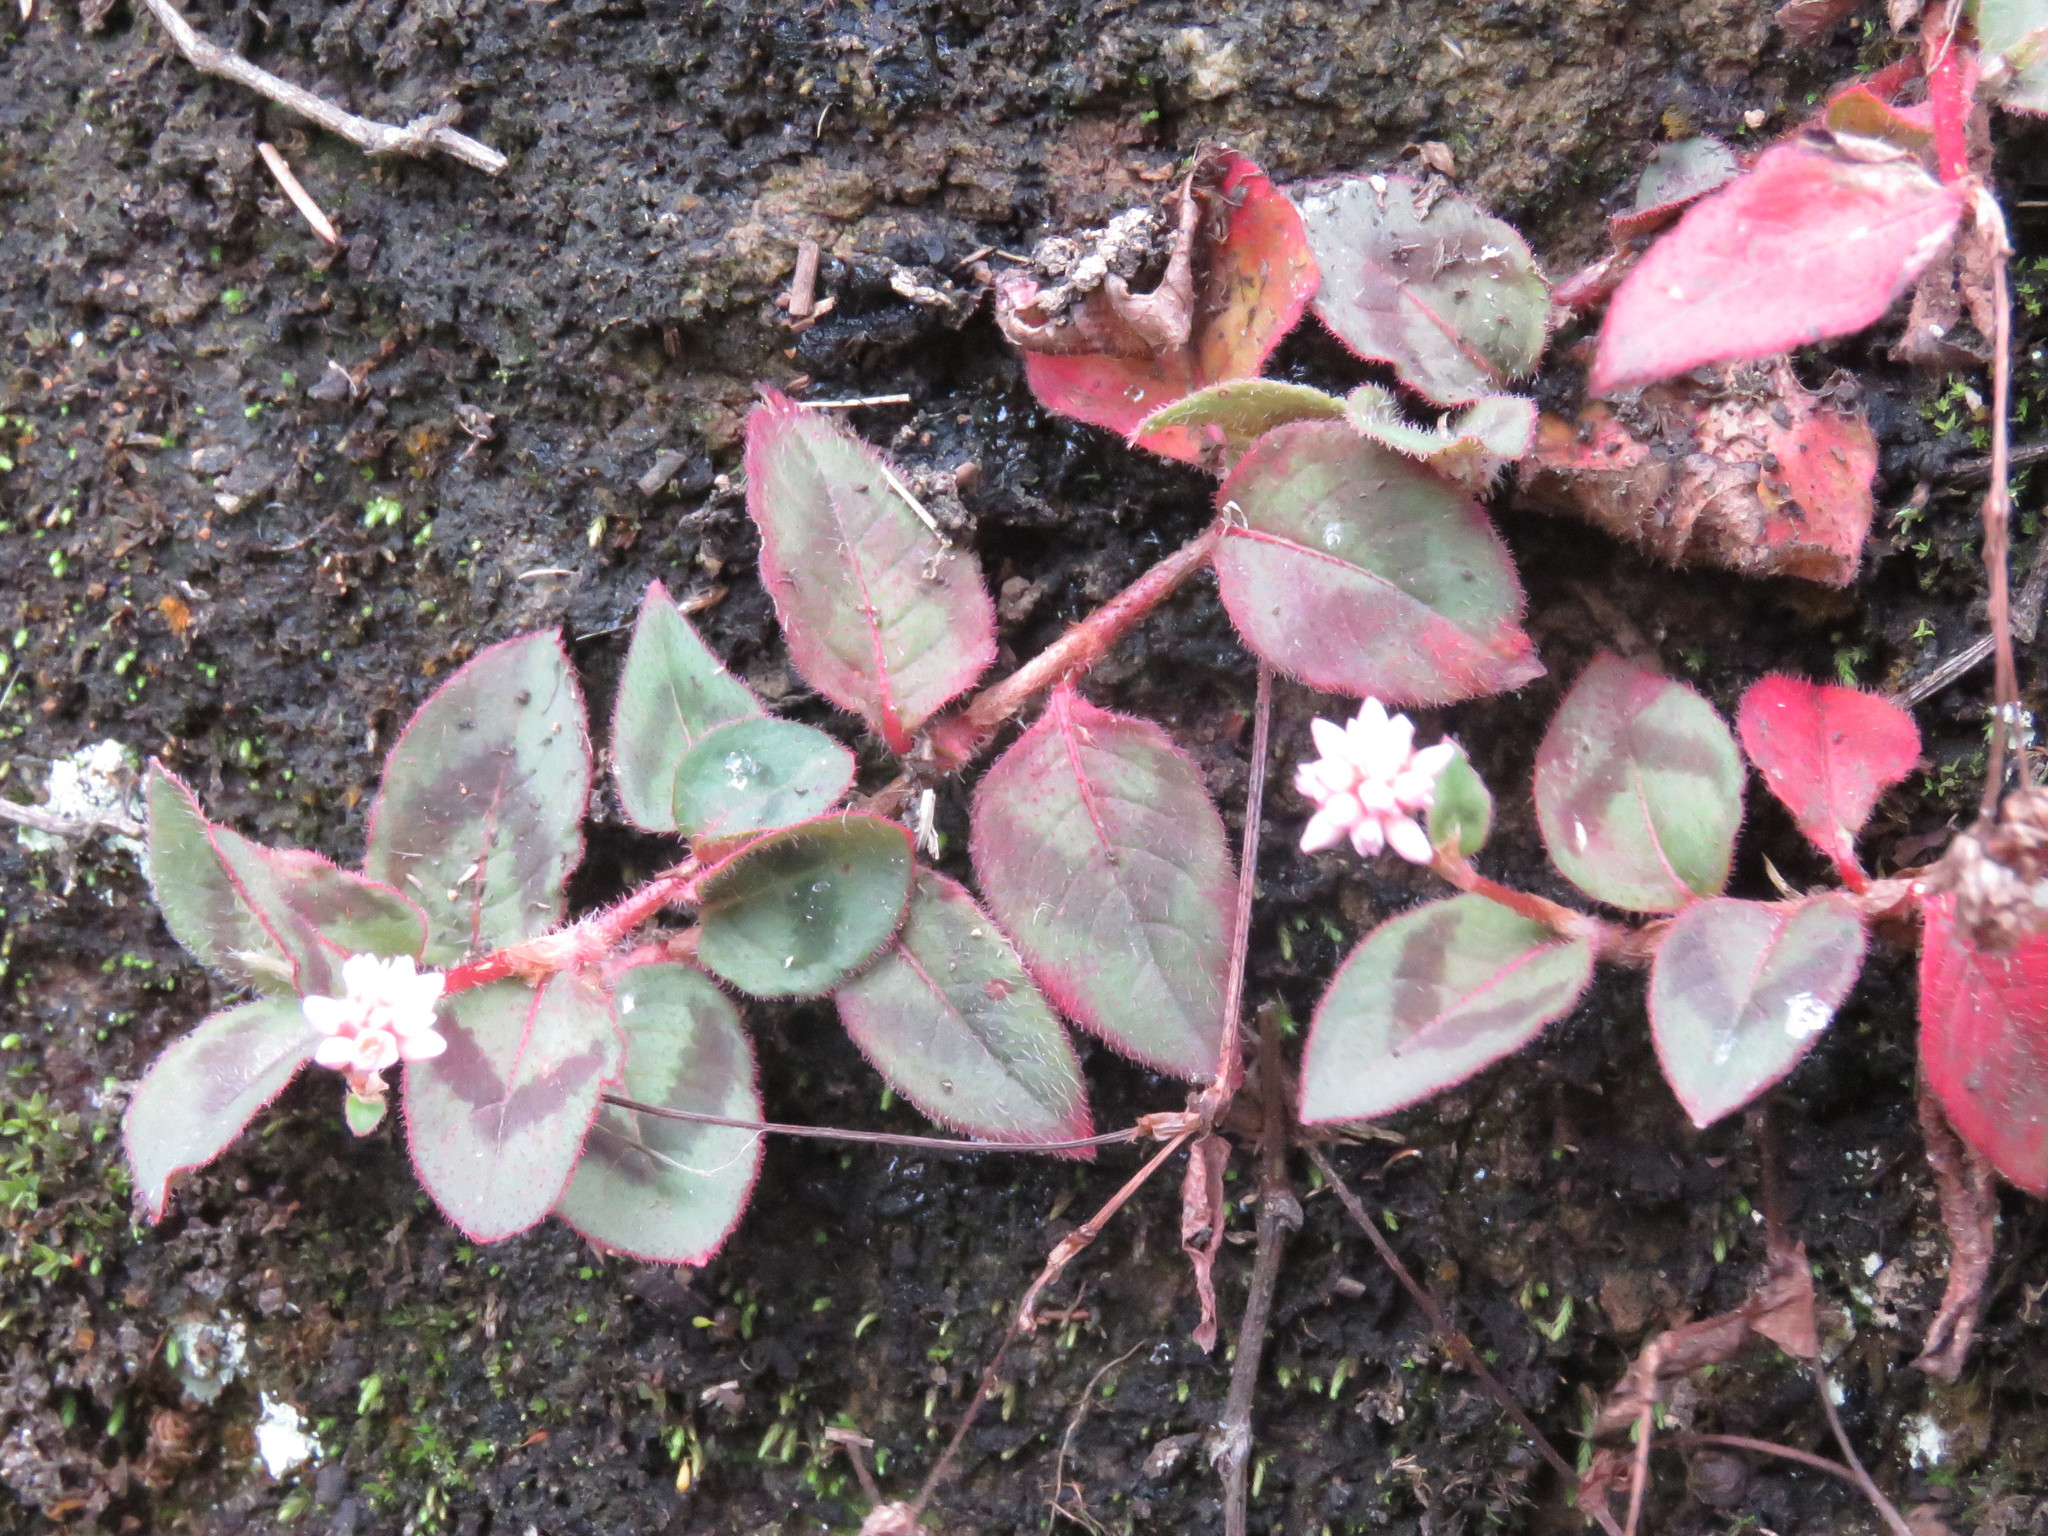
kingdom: Plantae
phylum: Tracheophyta
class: Magnoliopsida
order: Caryophyllales
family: Polygonaceae
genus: Persicaria
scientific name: Persicaria capitata
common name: Pinkhead smartweed
